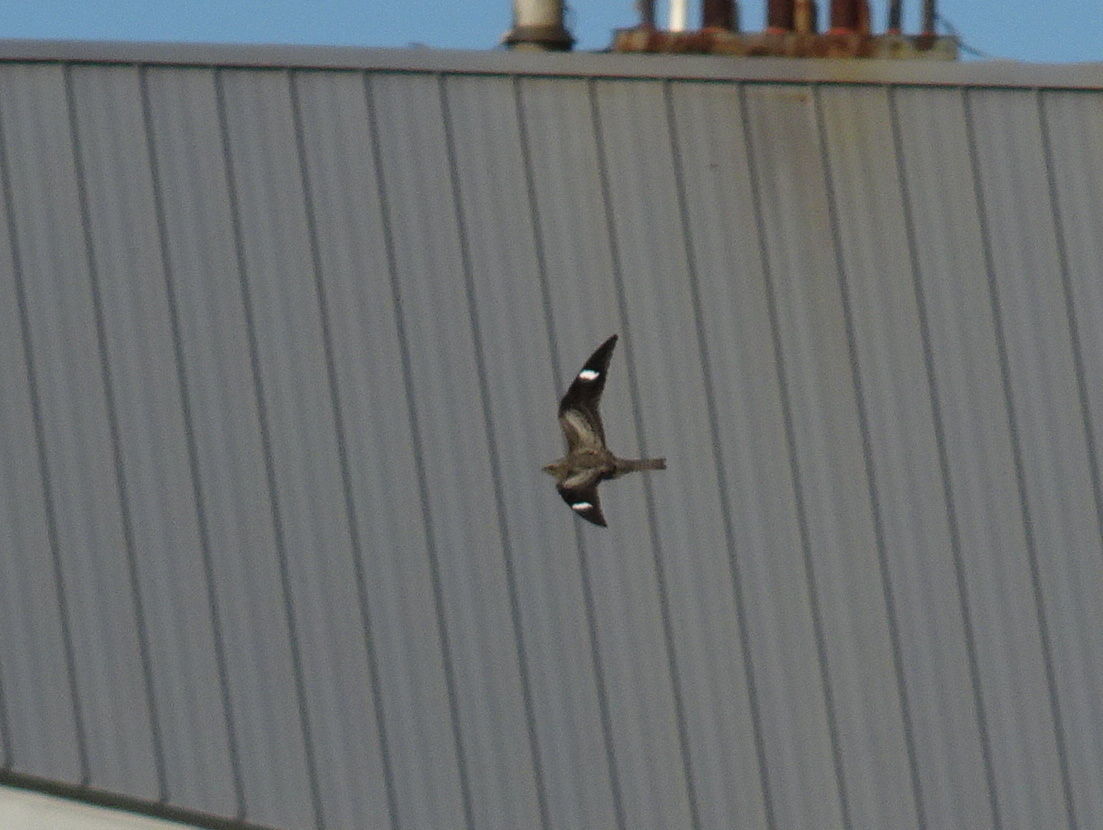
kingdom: Animalia
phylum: Chordata
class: Aves
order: Caprimulgiformes
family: Caprimulgidae
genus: Chordeiles
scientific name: Chordeiles minor
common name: Common nighthawk
